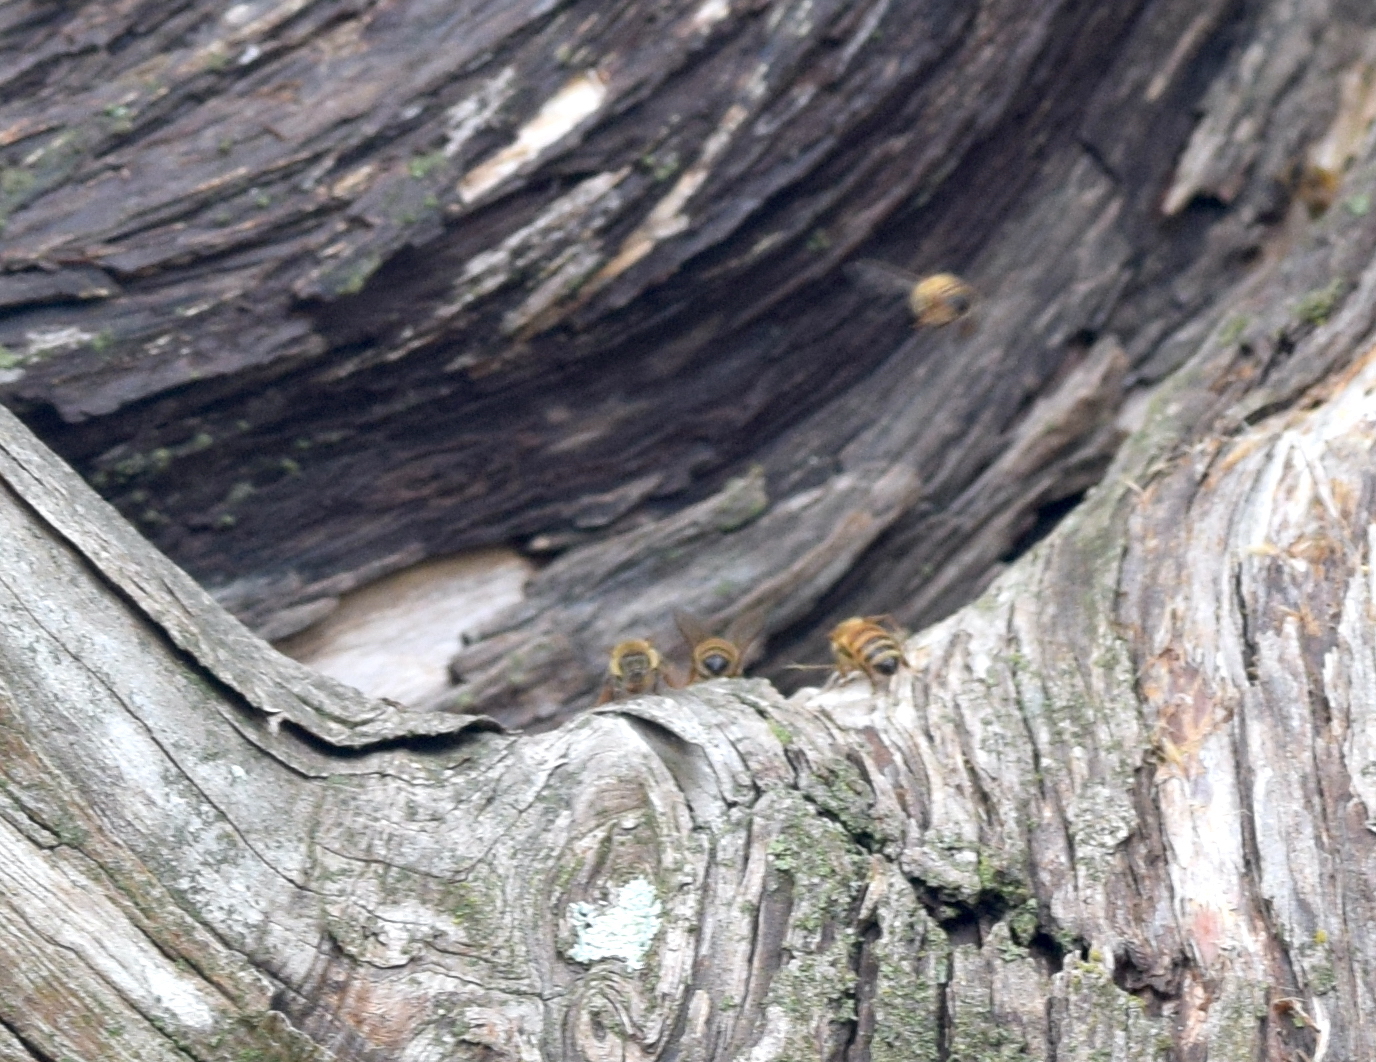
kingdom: Animalia
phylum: Arthropoda
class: Insecta
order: Hymenoptera
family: Apidae
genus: Apis
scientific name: Apis mellifera
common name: Honey bee
